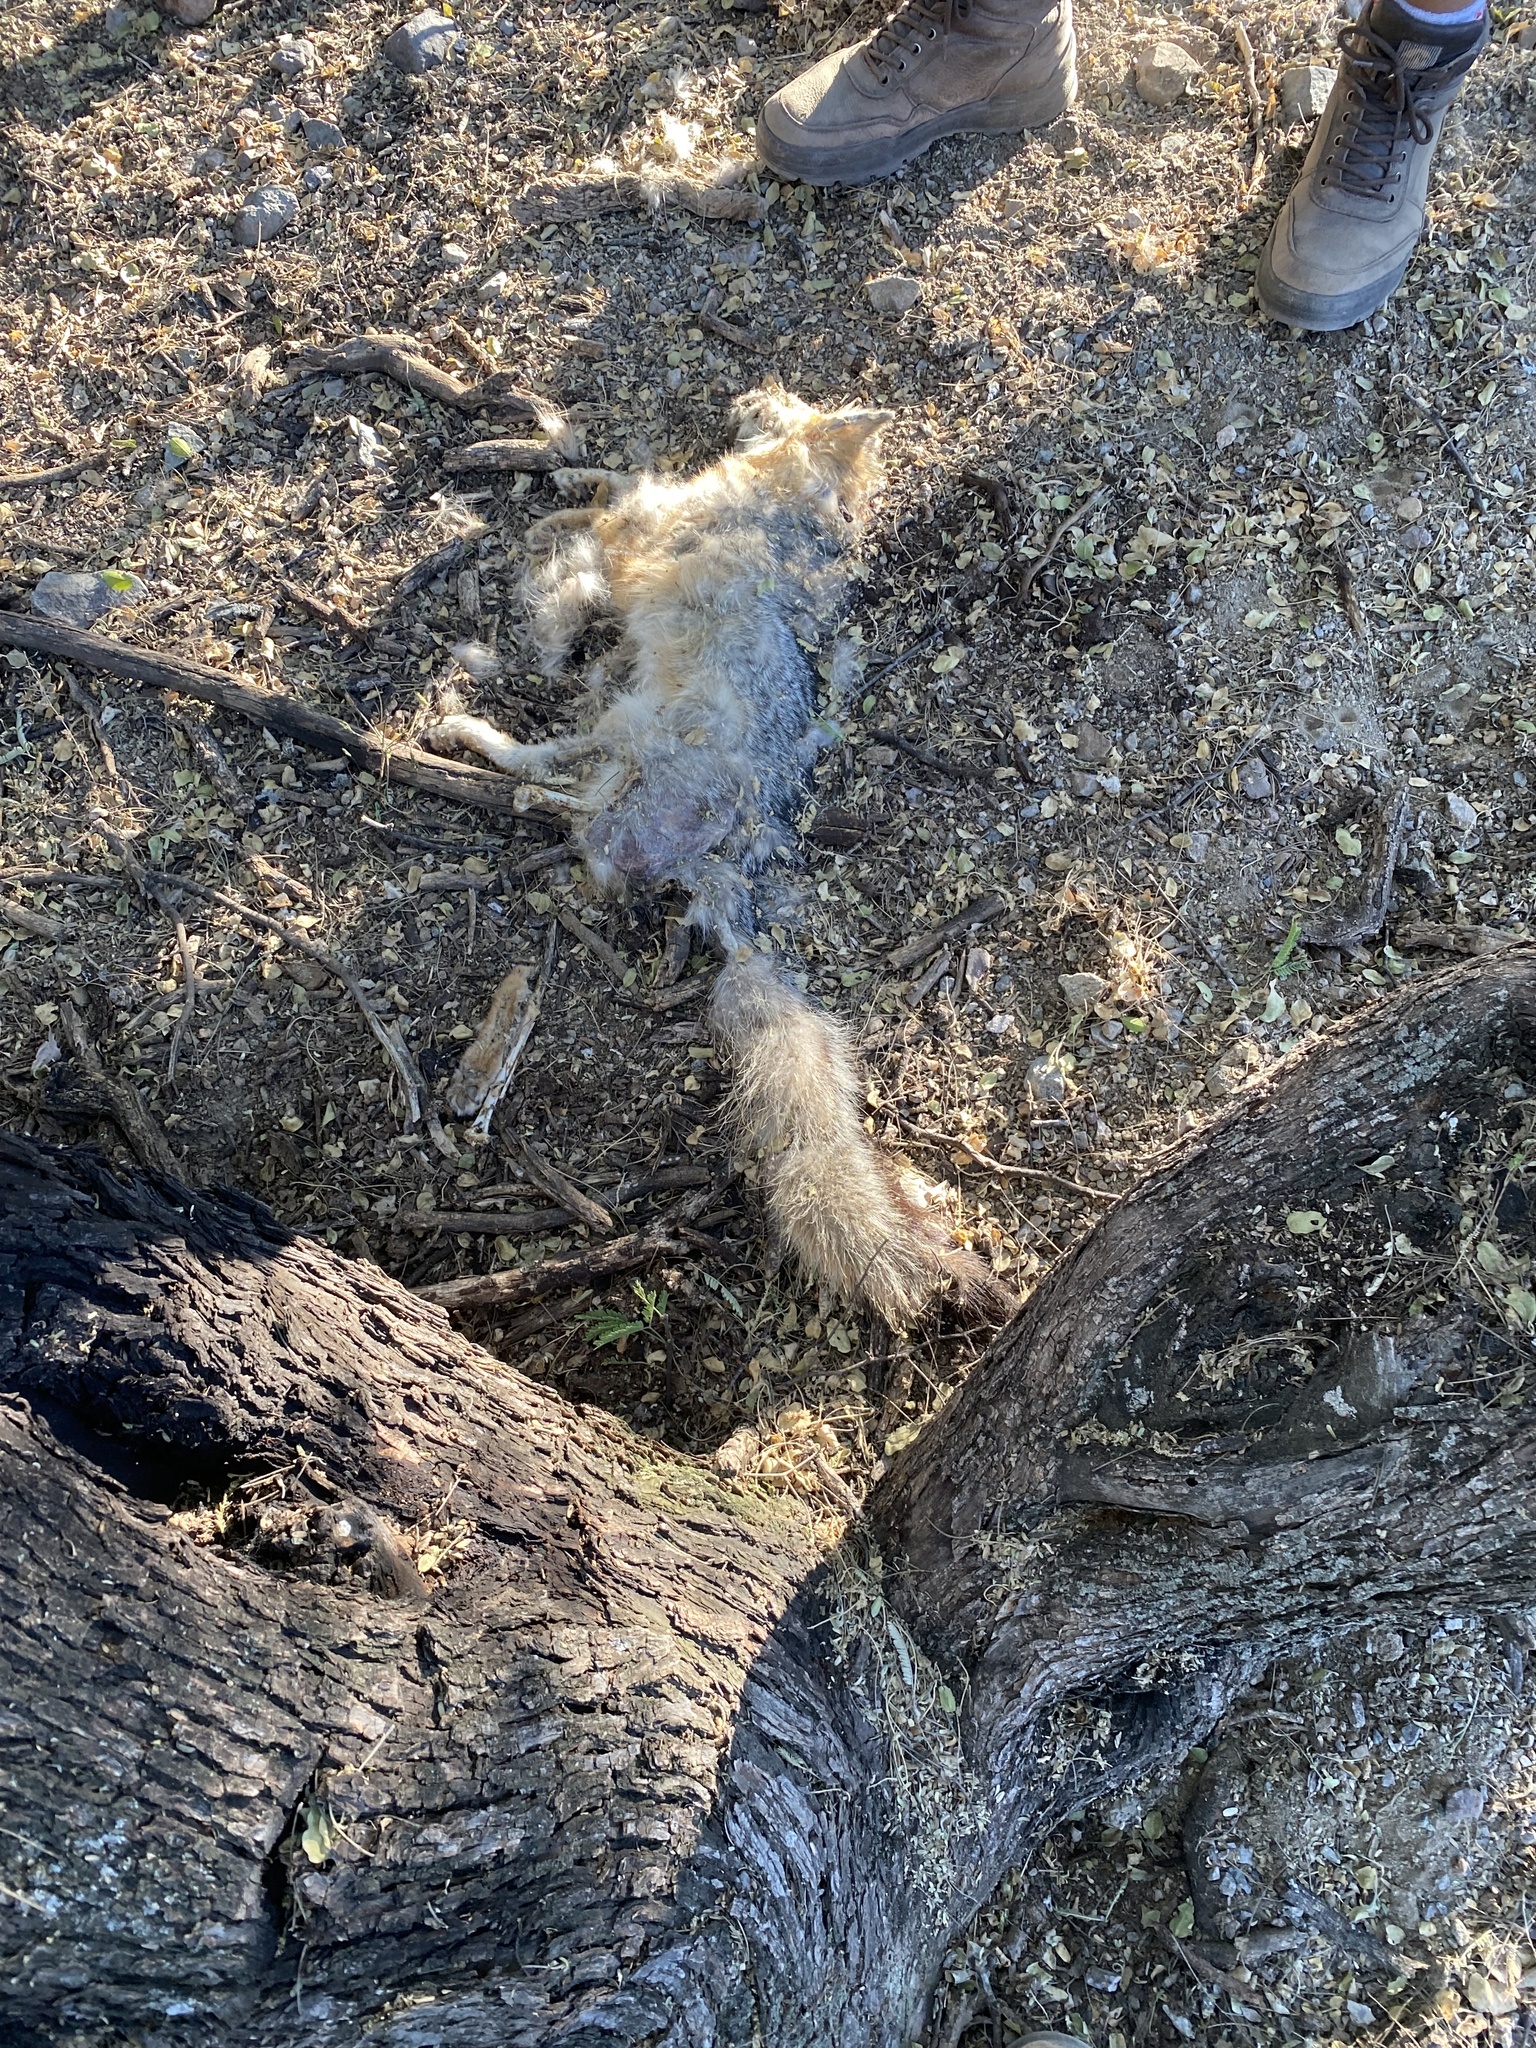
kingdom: Animalia
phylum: Chordata
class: Mammalia
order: Carnivora
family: Canidae
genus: Urocyon
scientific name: Urocyon cinereoargenteus
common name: Gray fox
